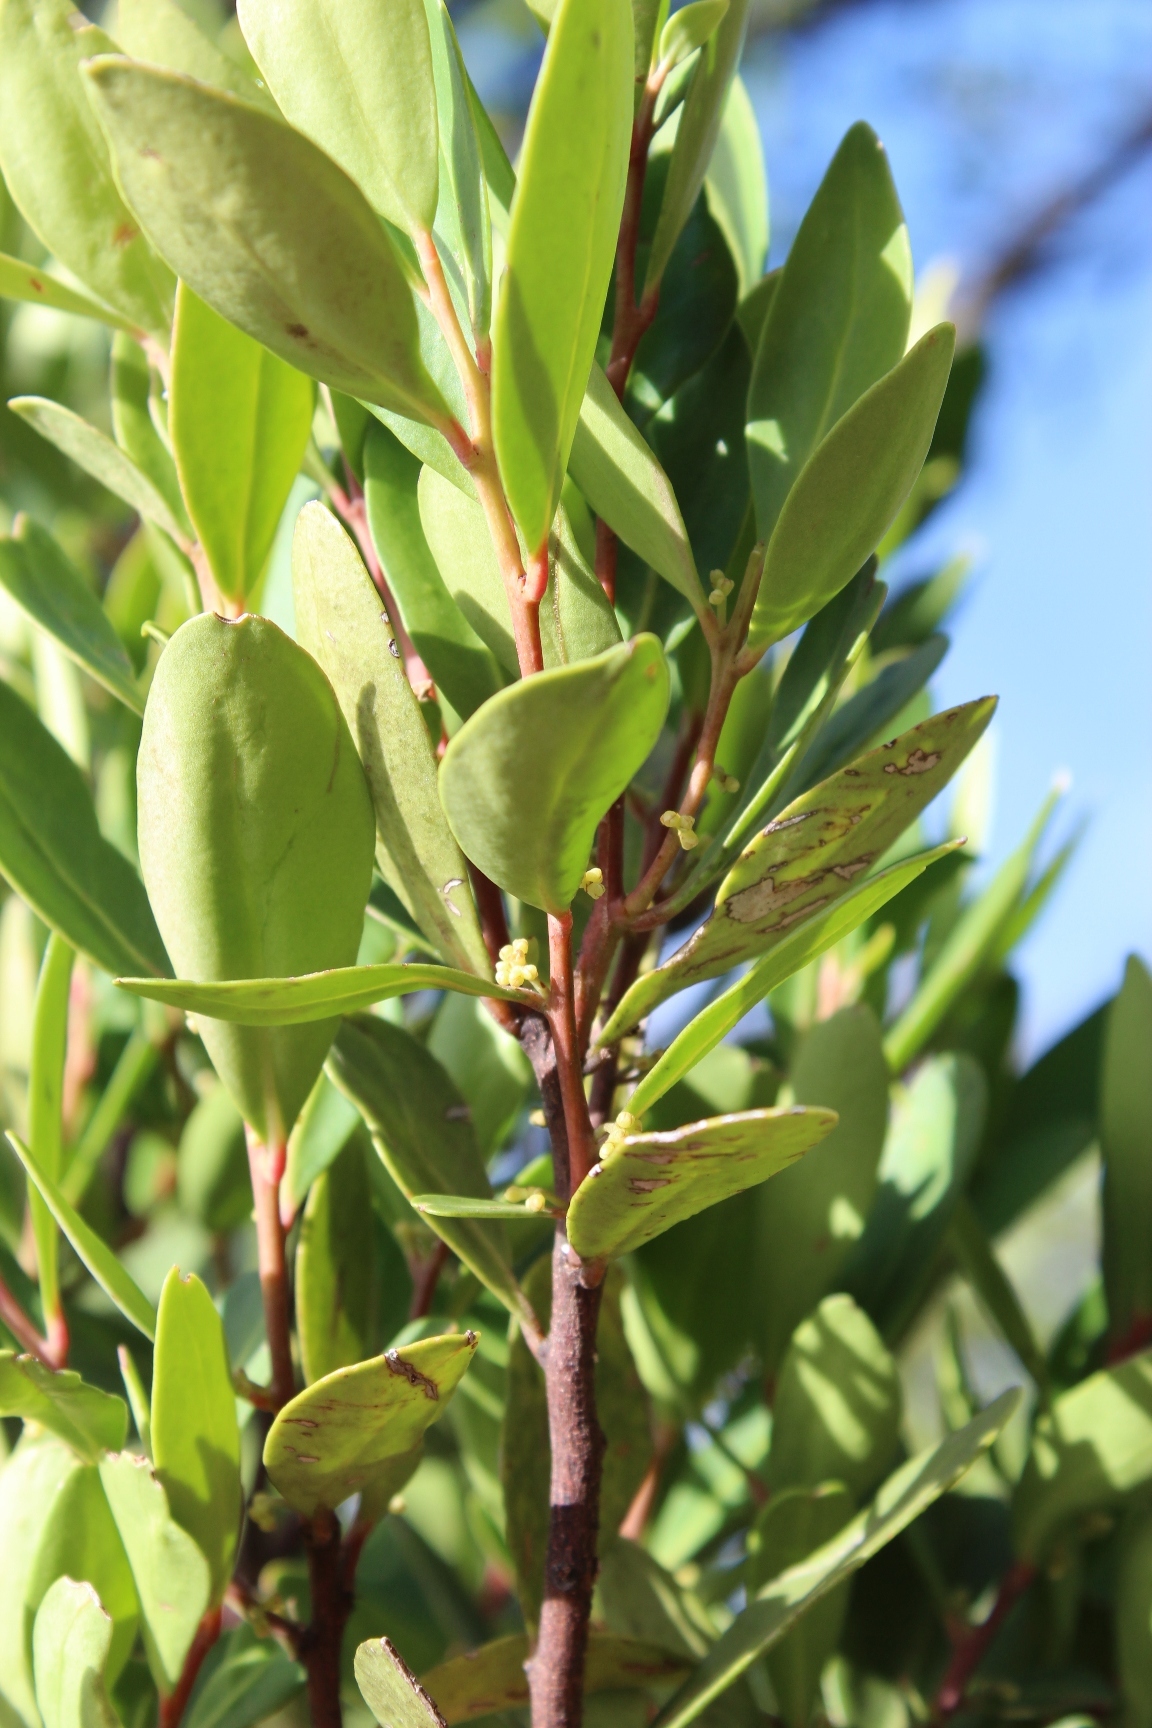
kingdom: Plantae
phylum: Tracheophyta
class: Magnoliopsida
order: Celastrales
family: Celastraceae
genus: Gymnosporia
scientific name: Gymnosporia laurina
